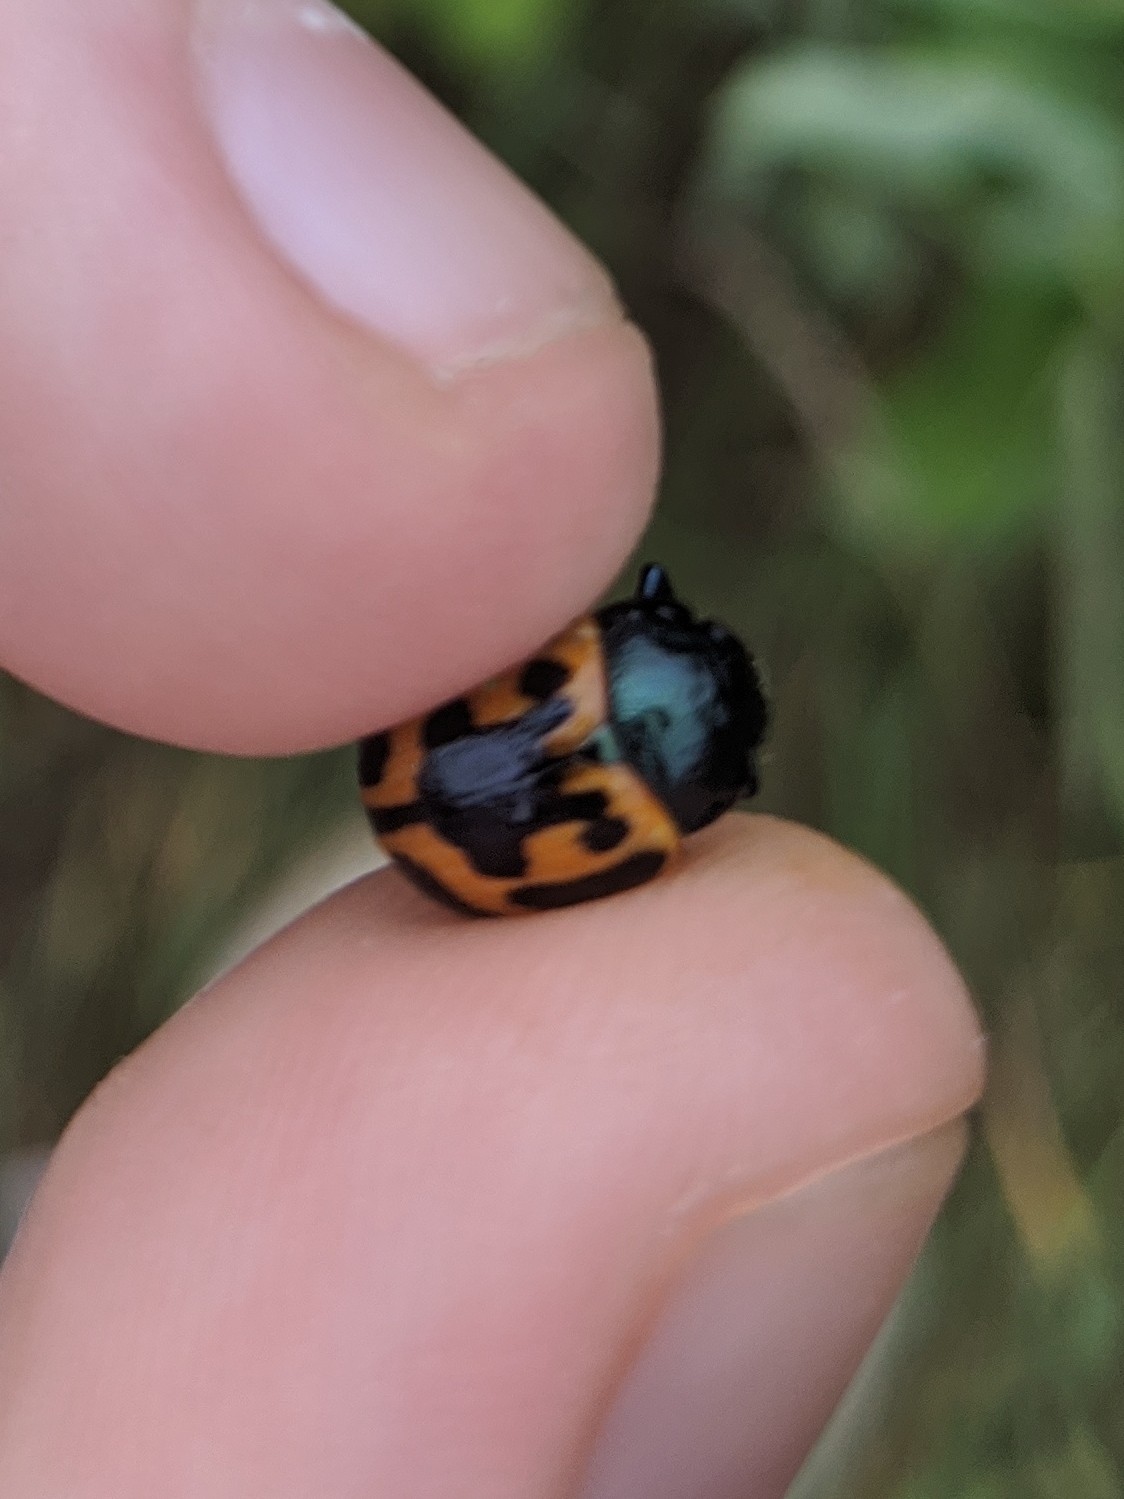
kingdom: Animalia
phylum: Arthropoda
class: Insecta
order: Coleoptera
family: Chrysomelidae
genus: Labidomera
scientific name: Labidomera clivicollis
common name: Swamp milkweed leaf beetle
